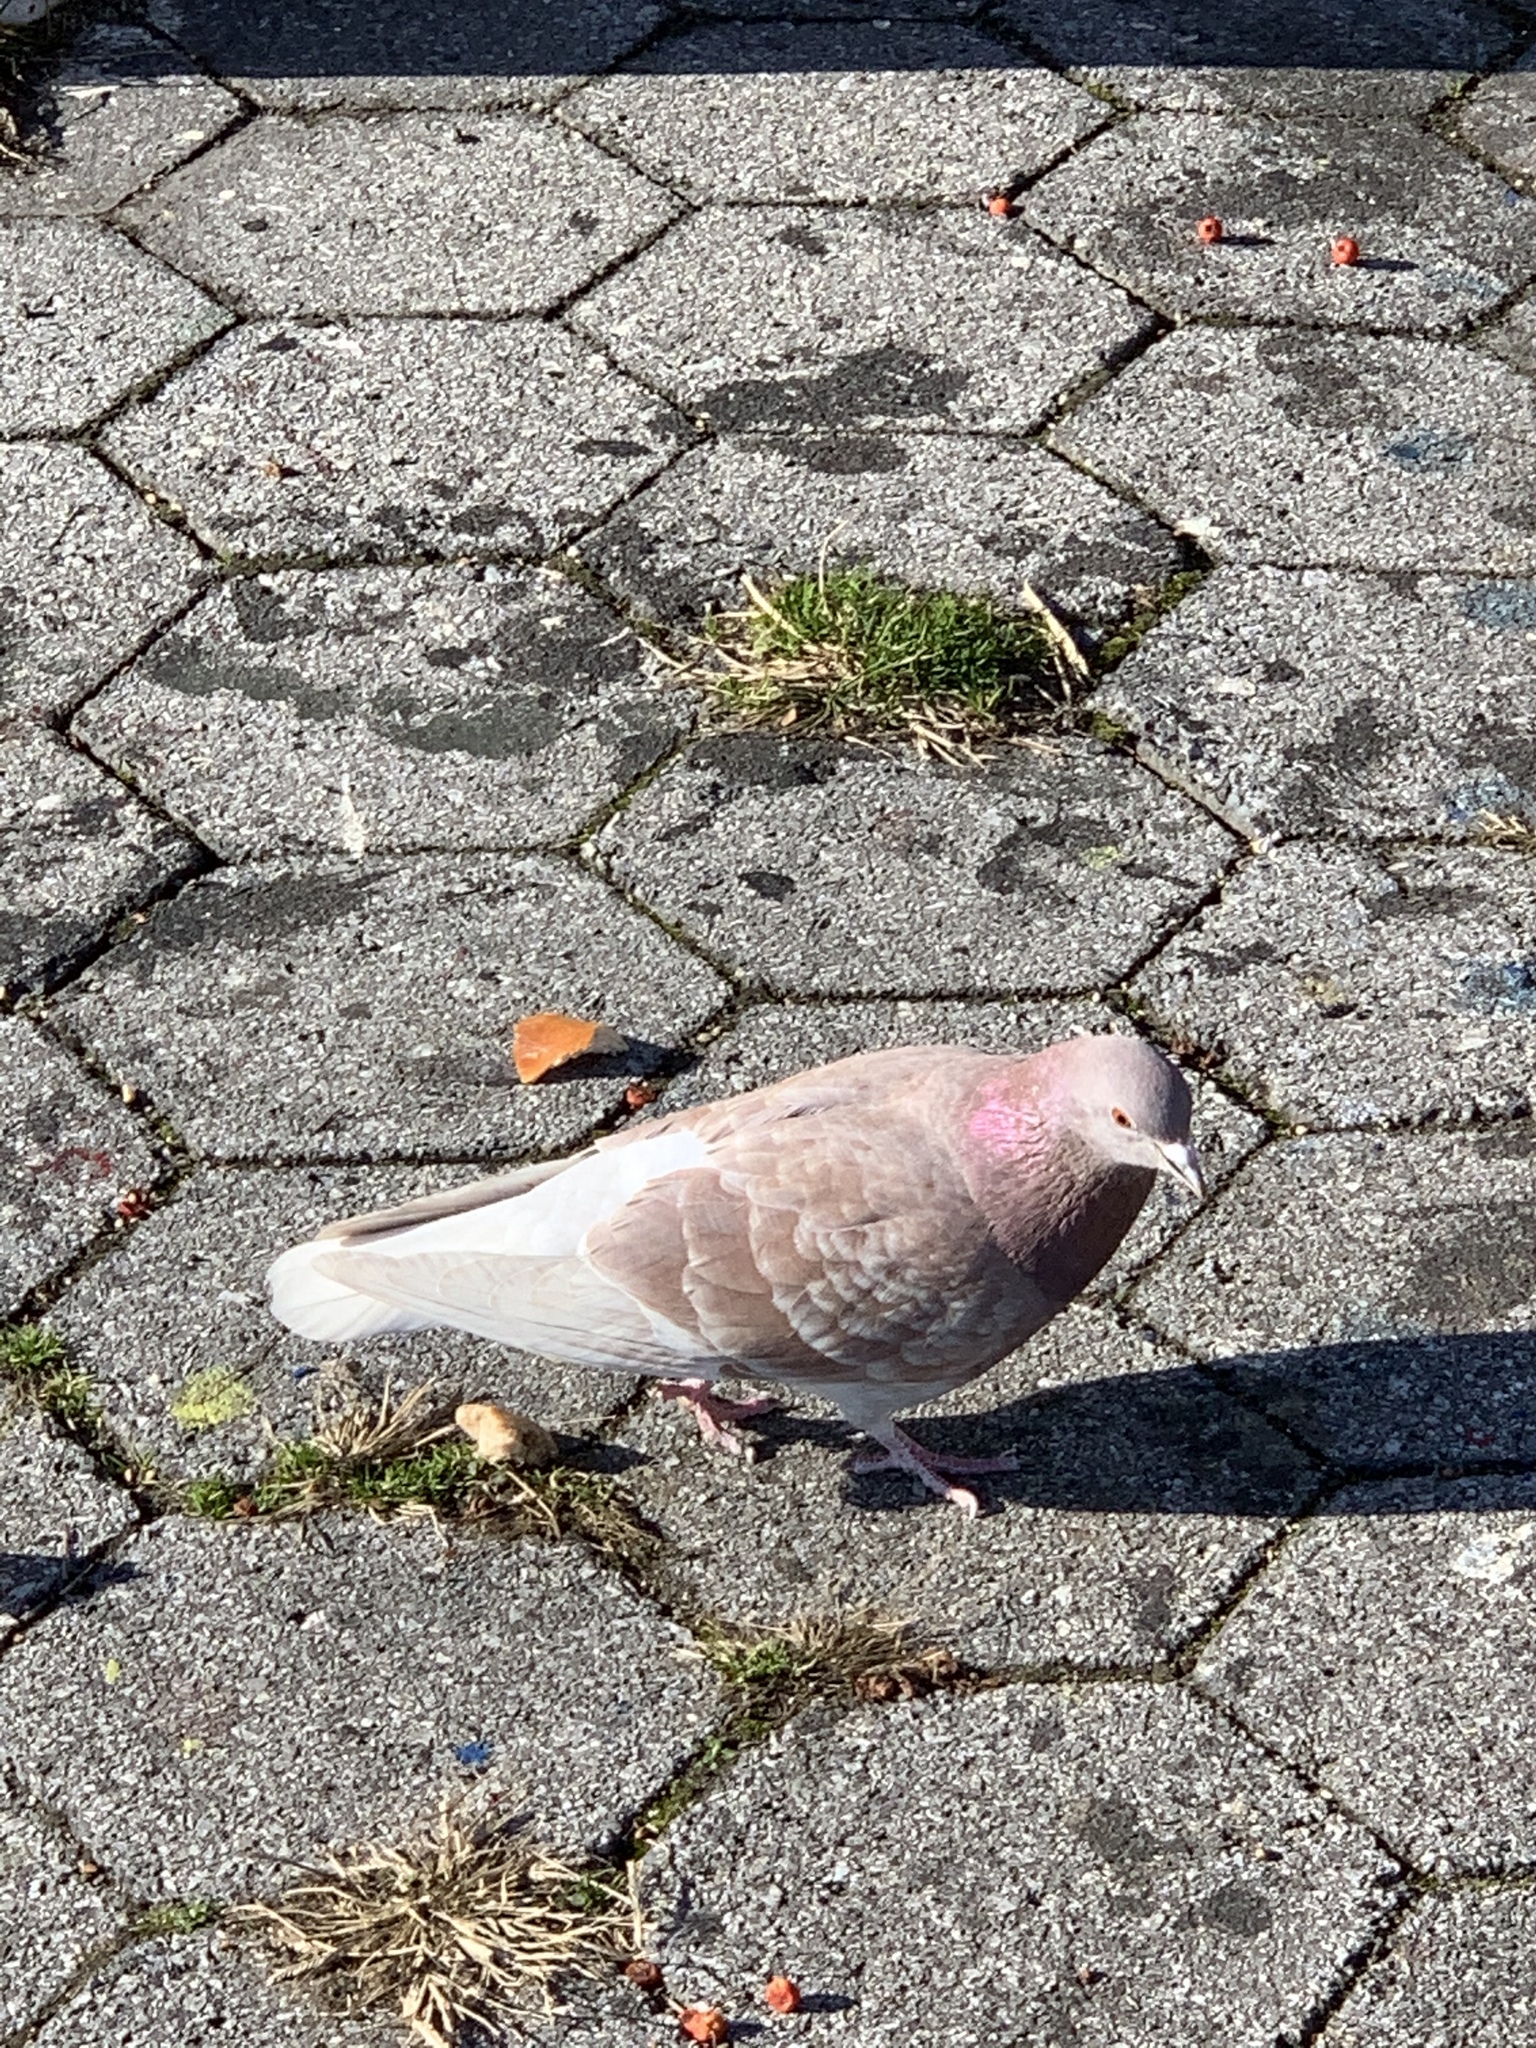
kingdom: Animalia
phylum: Chordata
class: Aves
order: Columbiformes
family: Columbidae
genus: Columba
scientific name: Columba livia
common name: Rock pigeon
